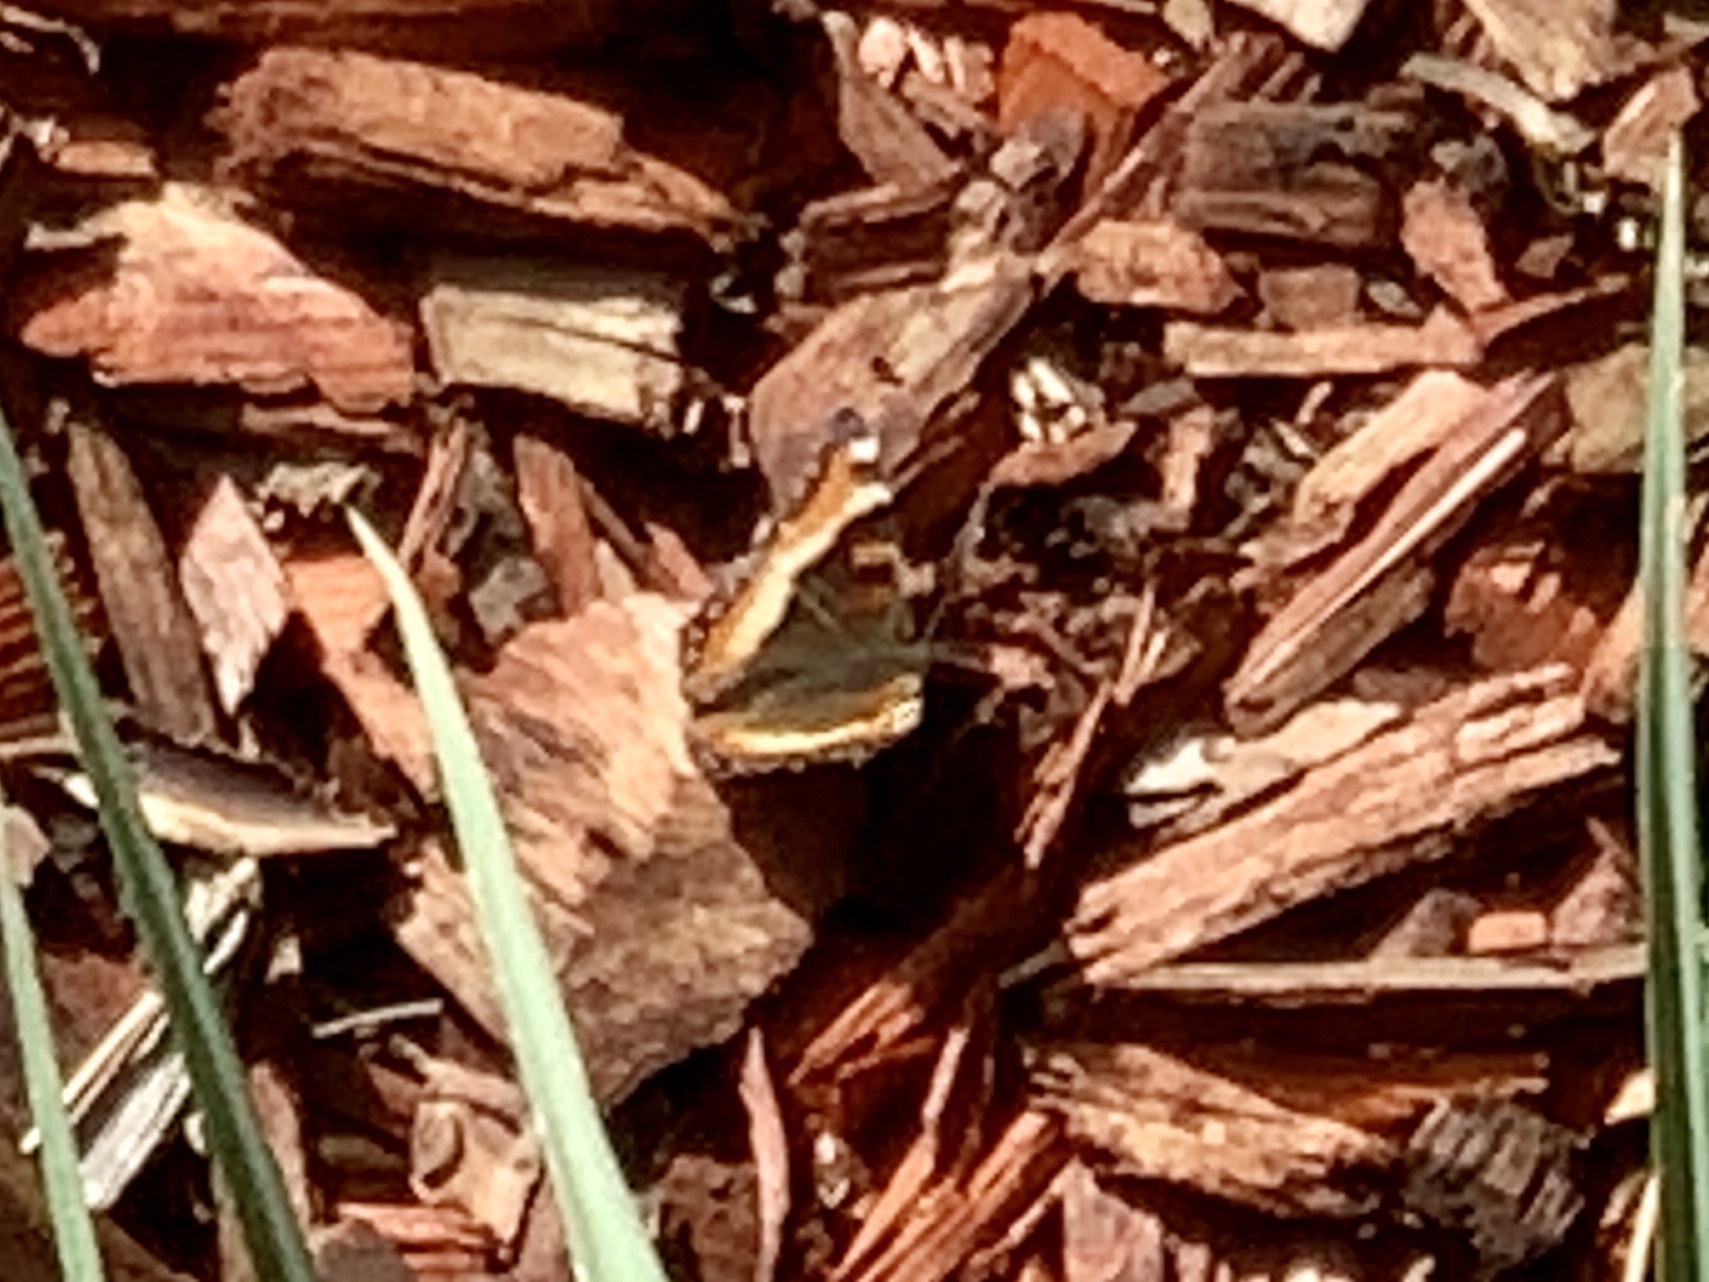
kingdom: Animalia
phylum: Arthropoda
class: Insecta
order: Lepidoptera
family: Nymphalidae
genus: Aglais
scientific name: Aglais milberti
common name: Milbert's tortoiseshell
